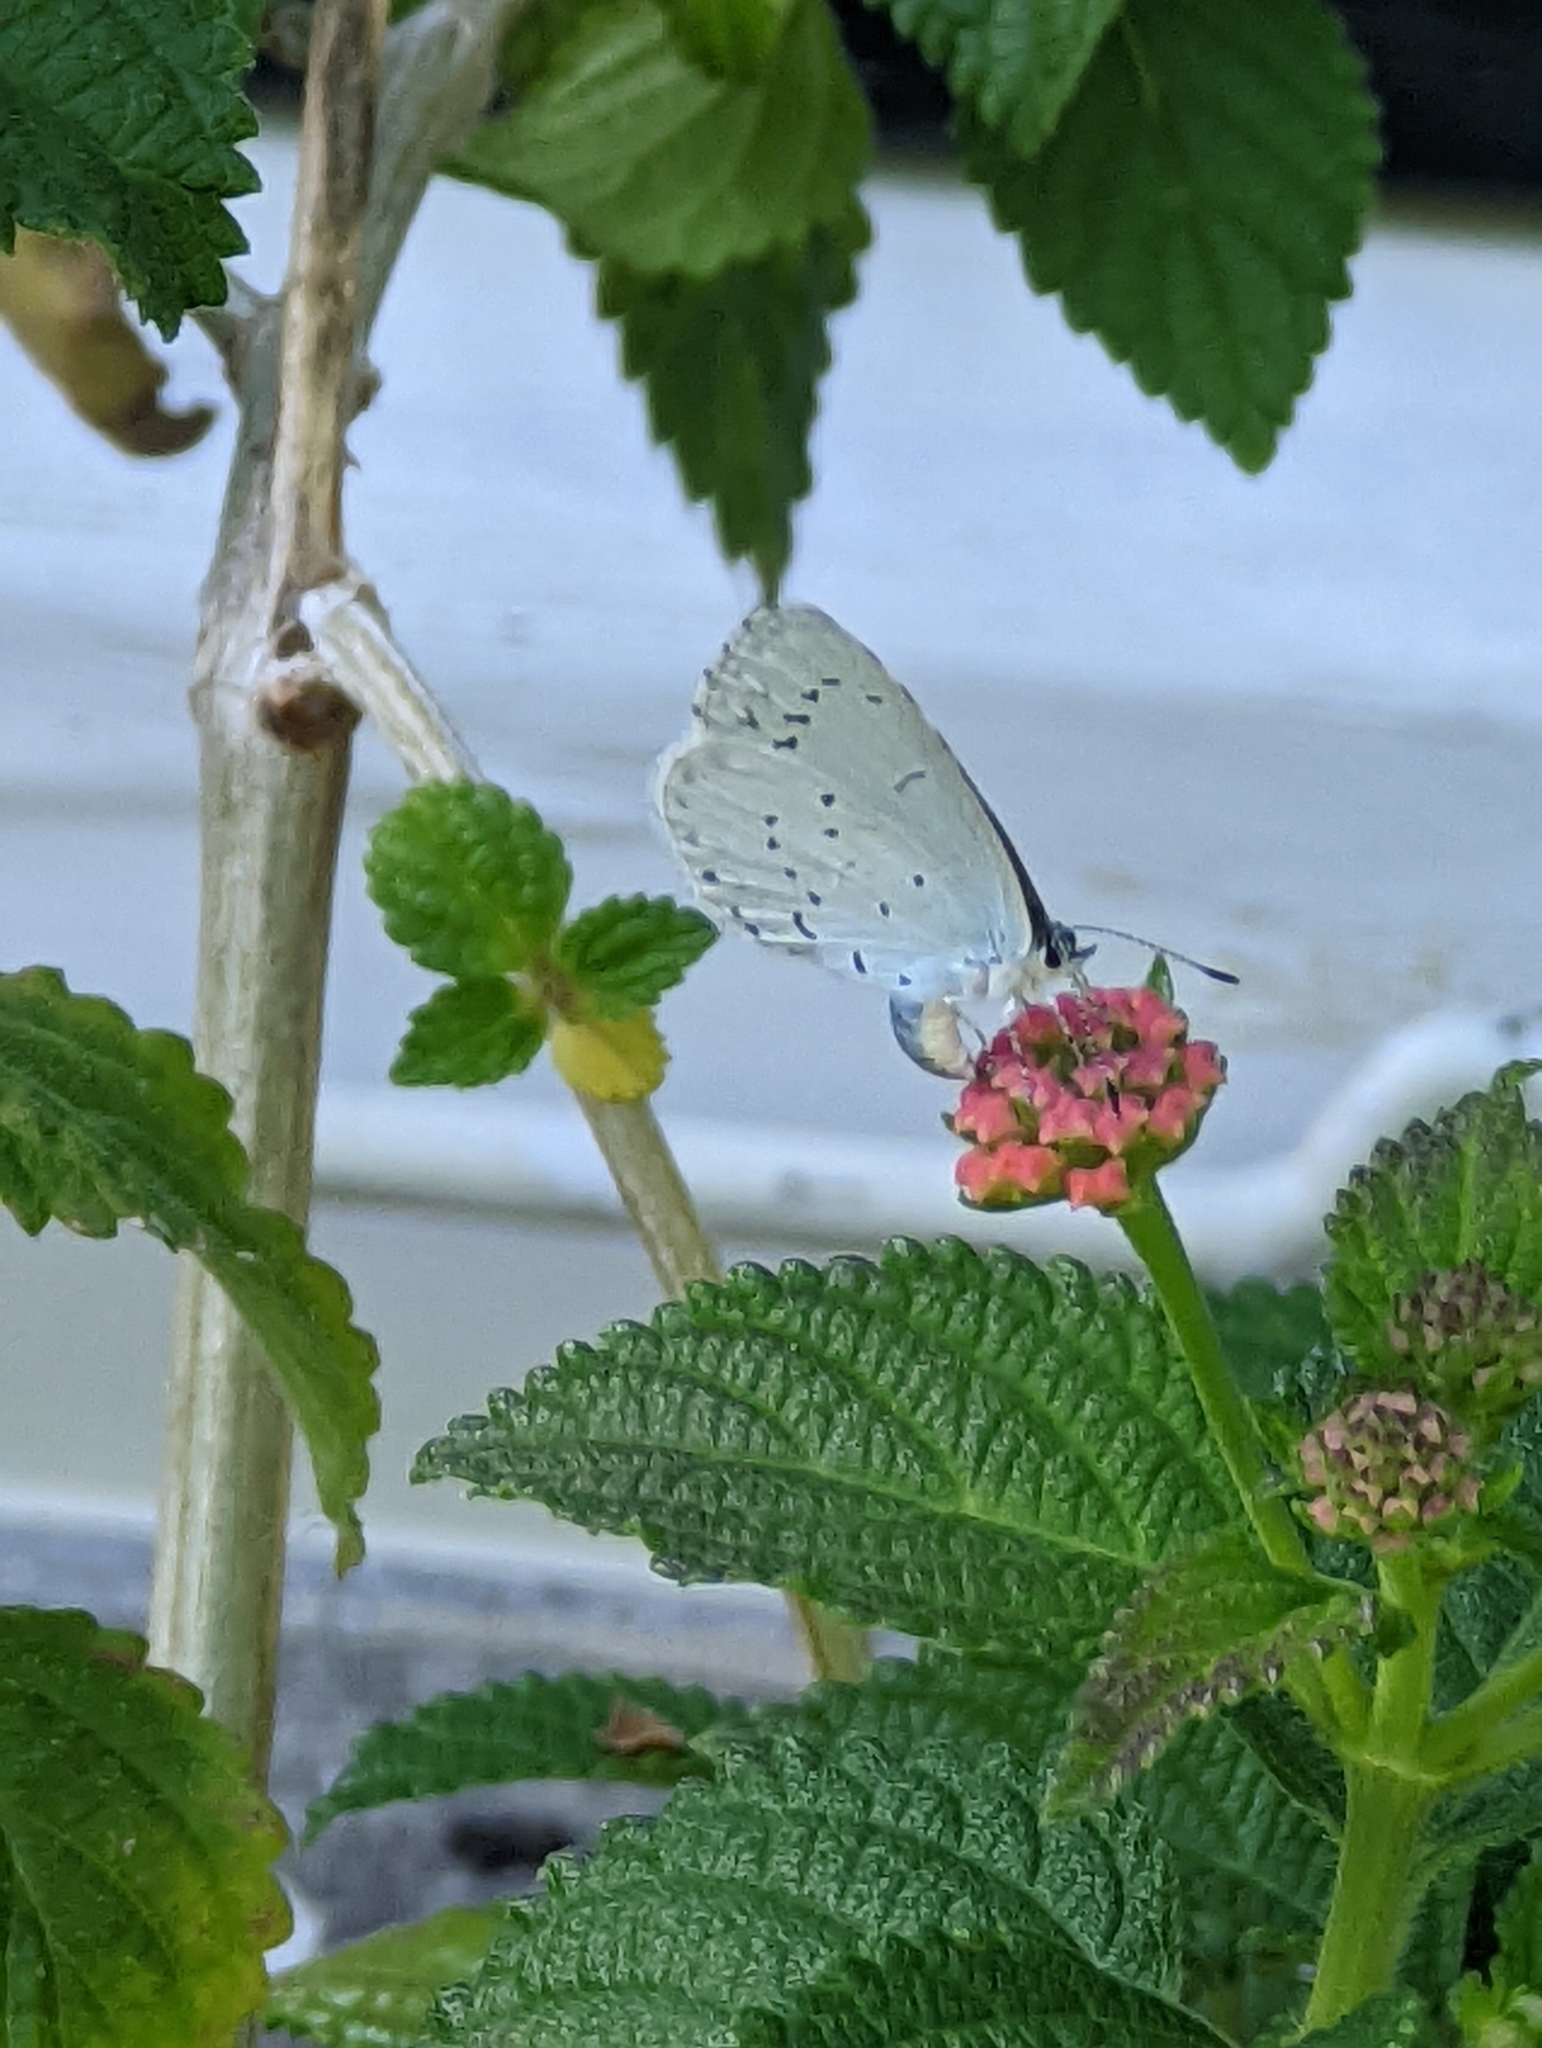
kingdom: Animalia
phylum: Arthropoda
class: Insecta
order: Lepidoptera
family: Lycaenidae
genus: Celastrina
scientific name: Celastrina argiolus
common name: Holly blue
